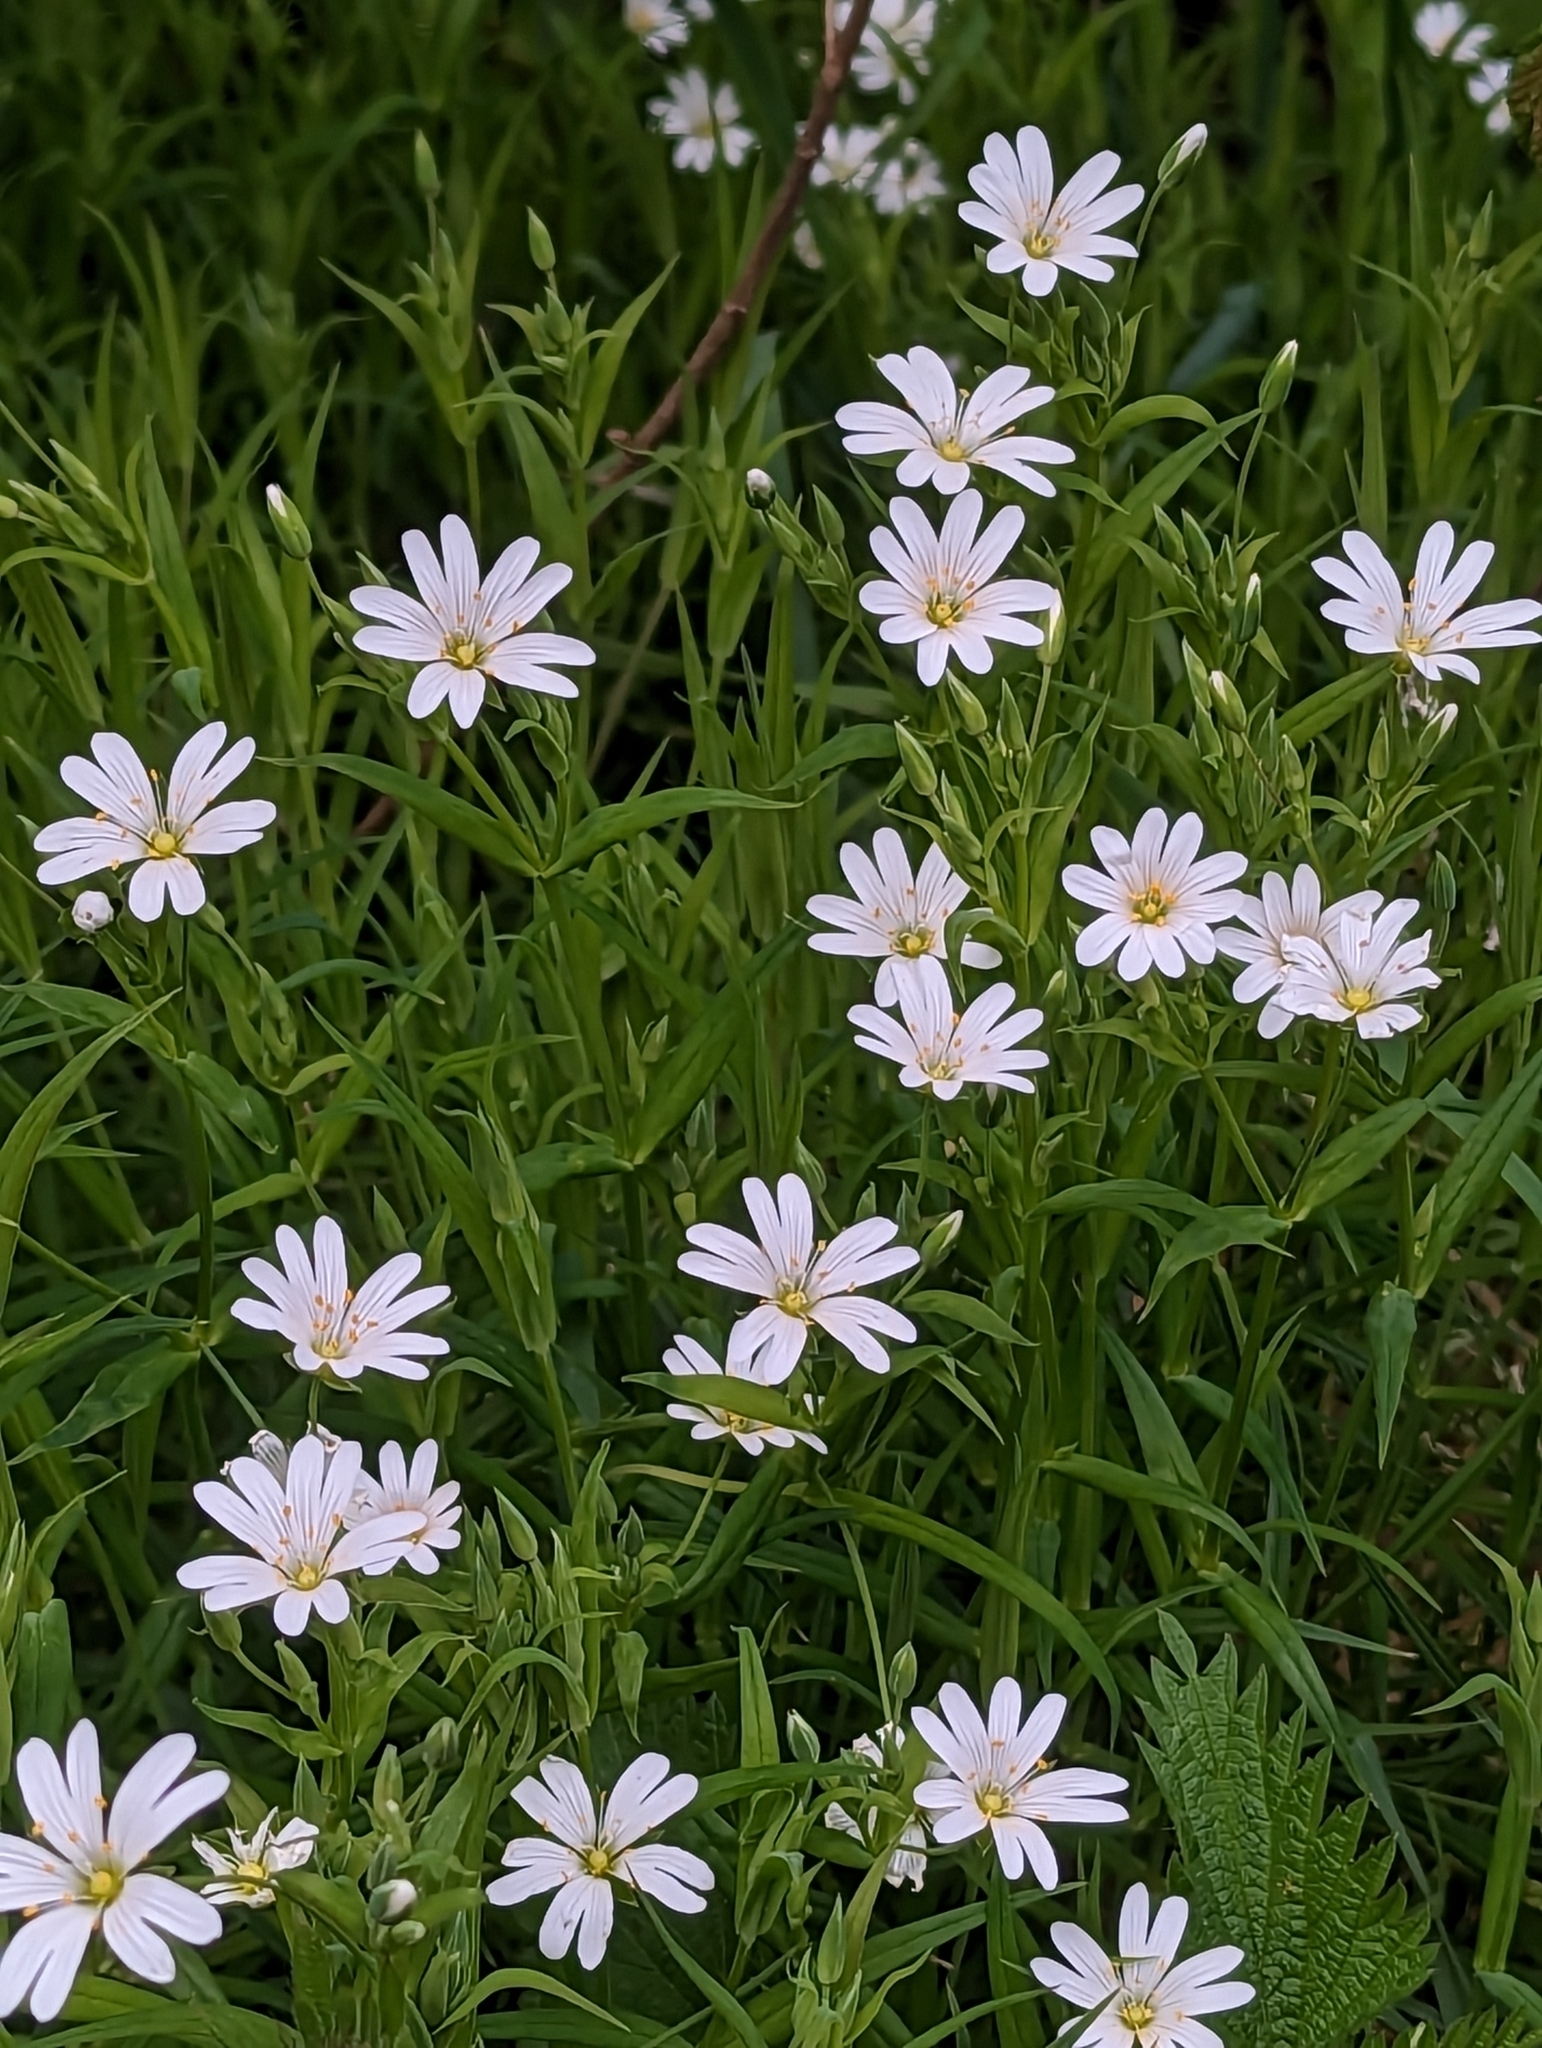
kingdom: Plantae
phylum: Tracheophyta
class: Magnoliopsida
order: Caryophyllales
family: Caryophyllaceae
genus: Rabelera
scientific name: Rabelera holostea
